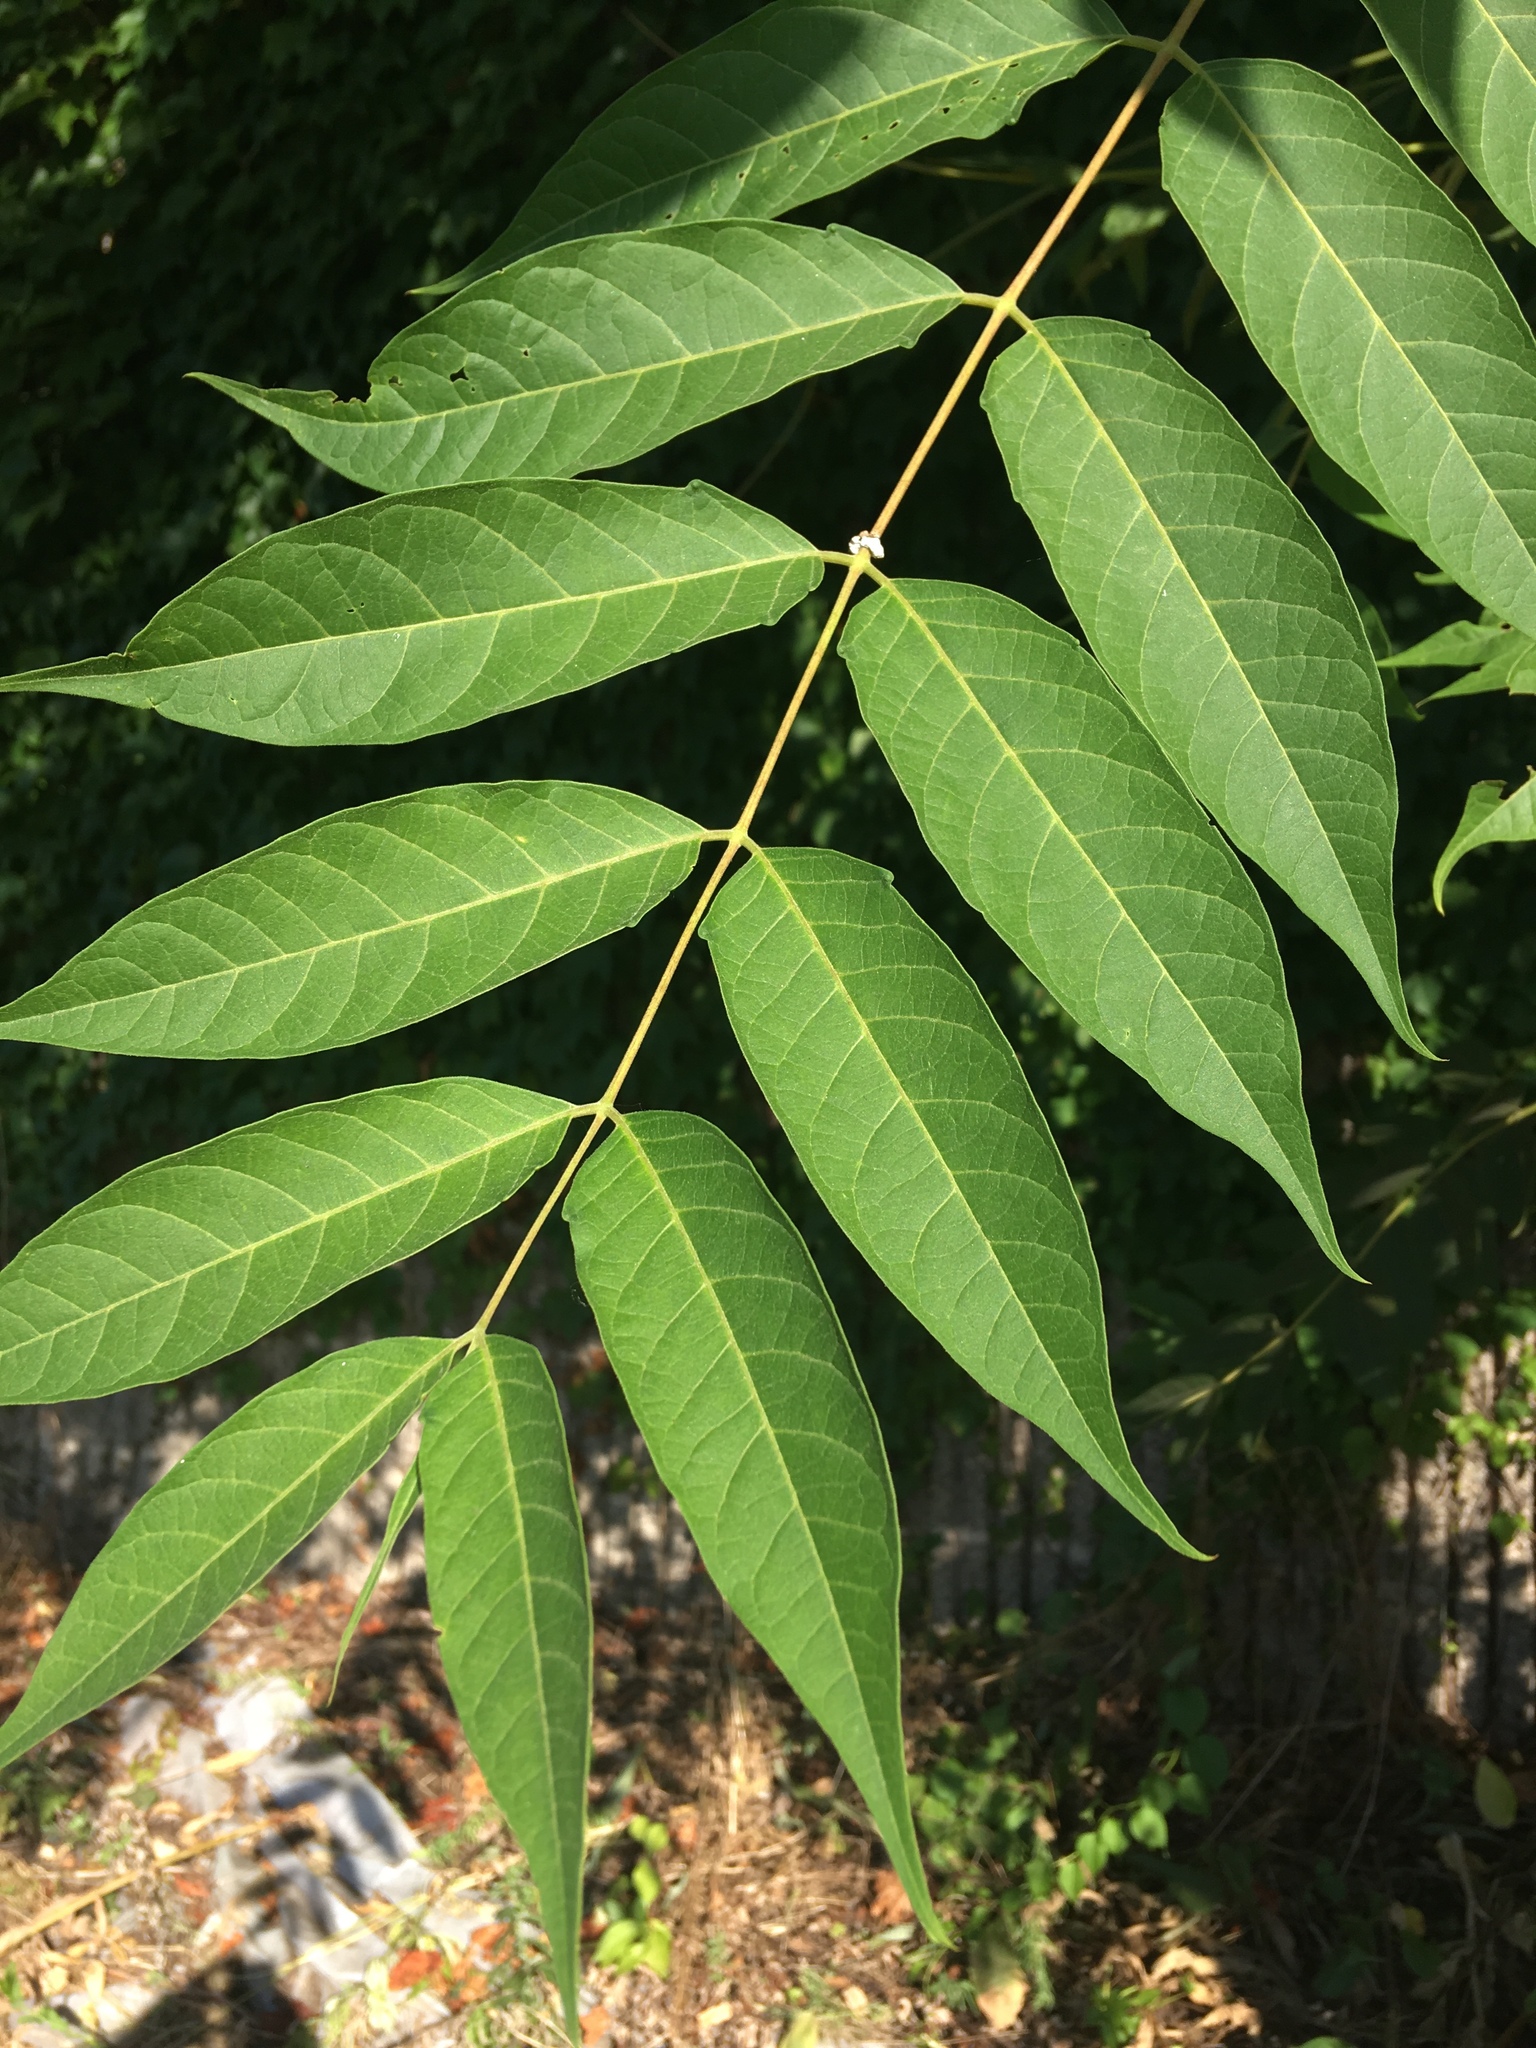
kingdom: Plantae
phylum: Tracheophyta
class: Magnoliopsida
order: Sapindales
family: Simaroubaceae
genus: Ailanthus
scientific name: Ailanthus altissima
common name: Tree-of-heaven
